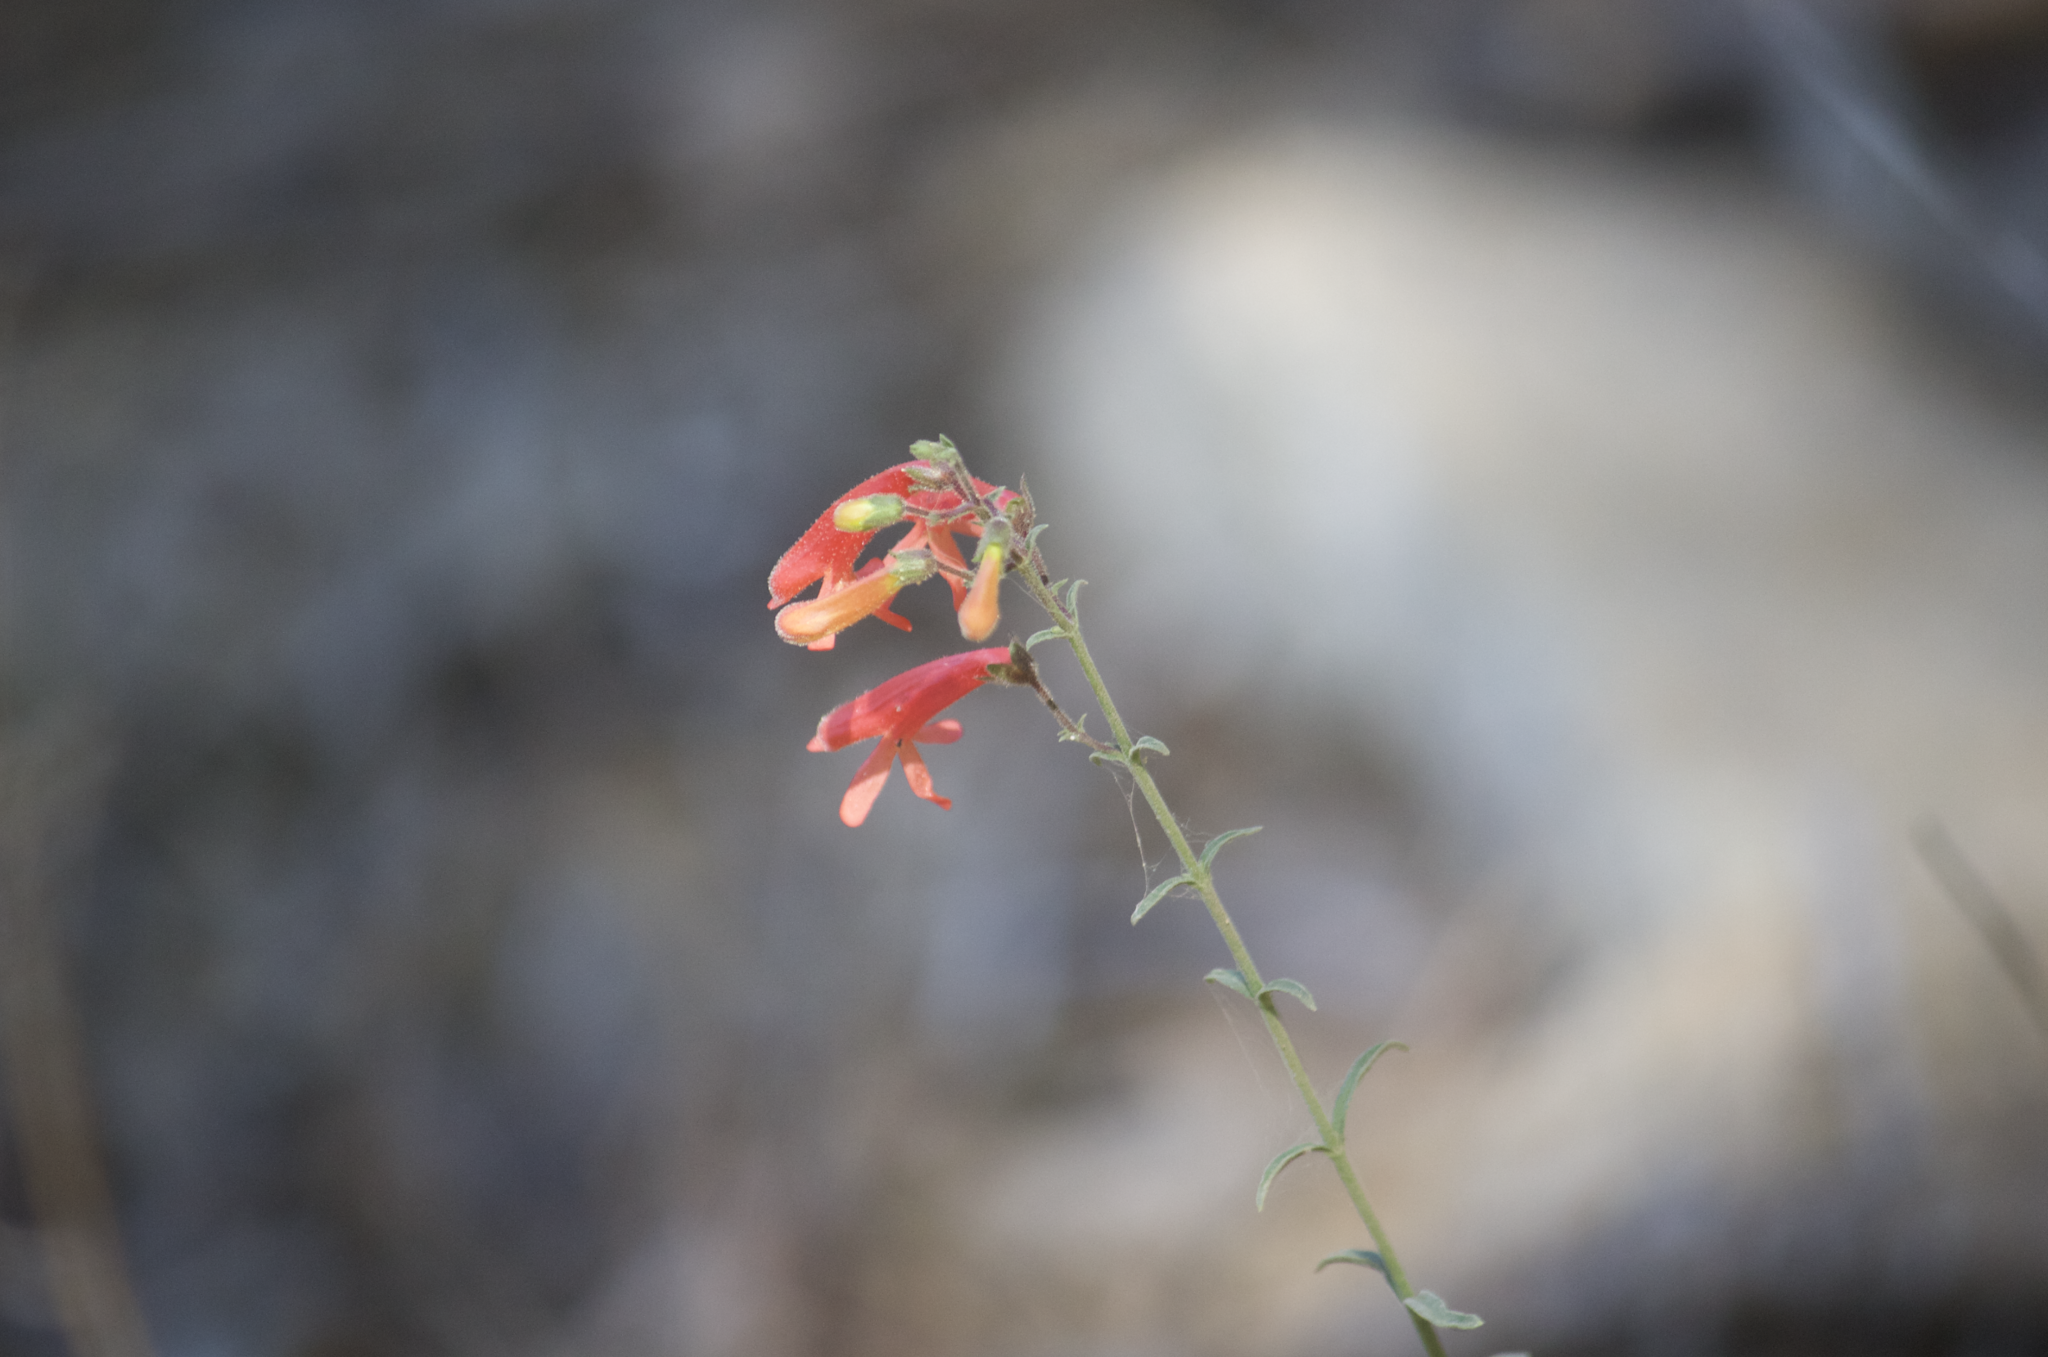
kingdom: Plantae
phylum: Tracheophyta
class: Magnoliopsida
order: Lamiales
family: Plantaginaceae
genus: Penstemon
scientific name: Penstemon rostriflorus
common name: Bridges's penstemon
